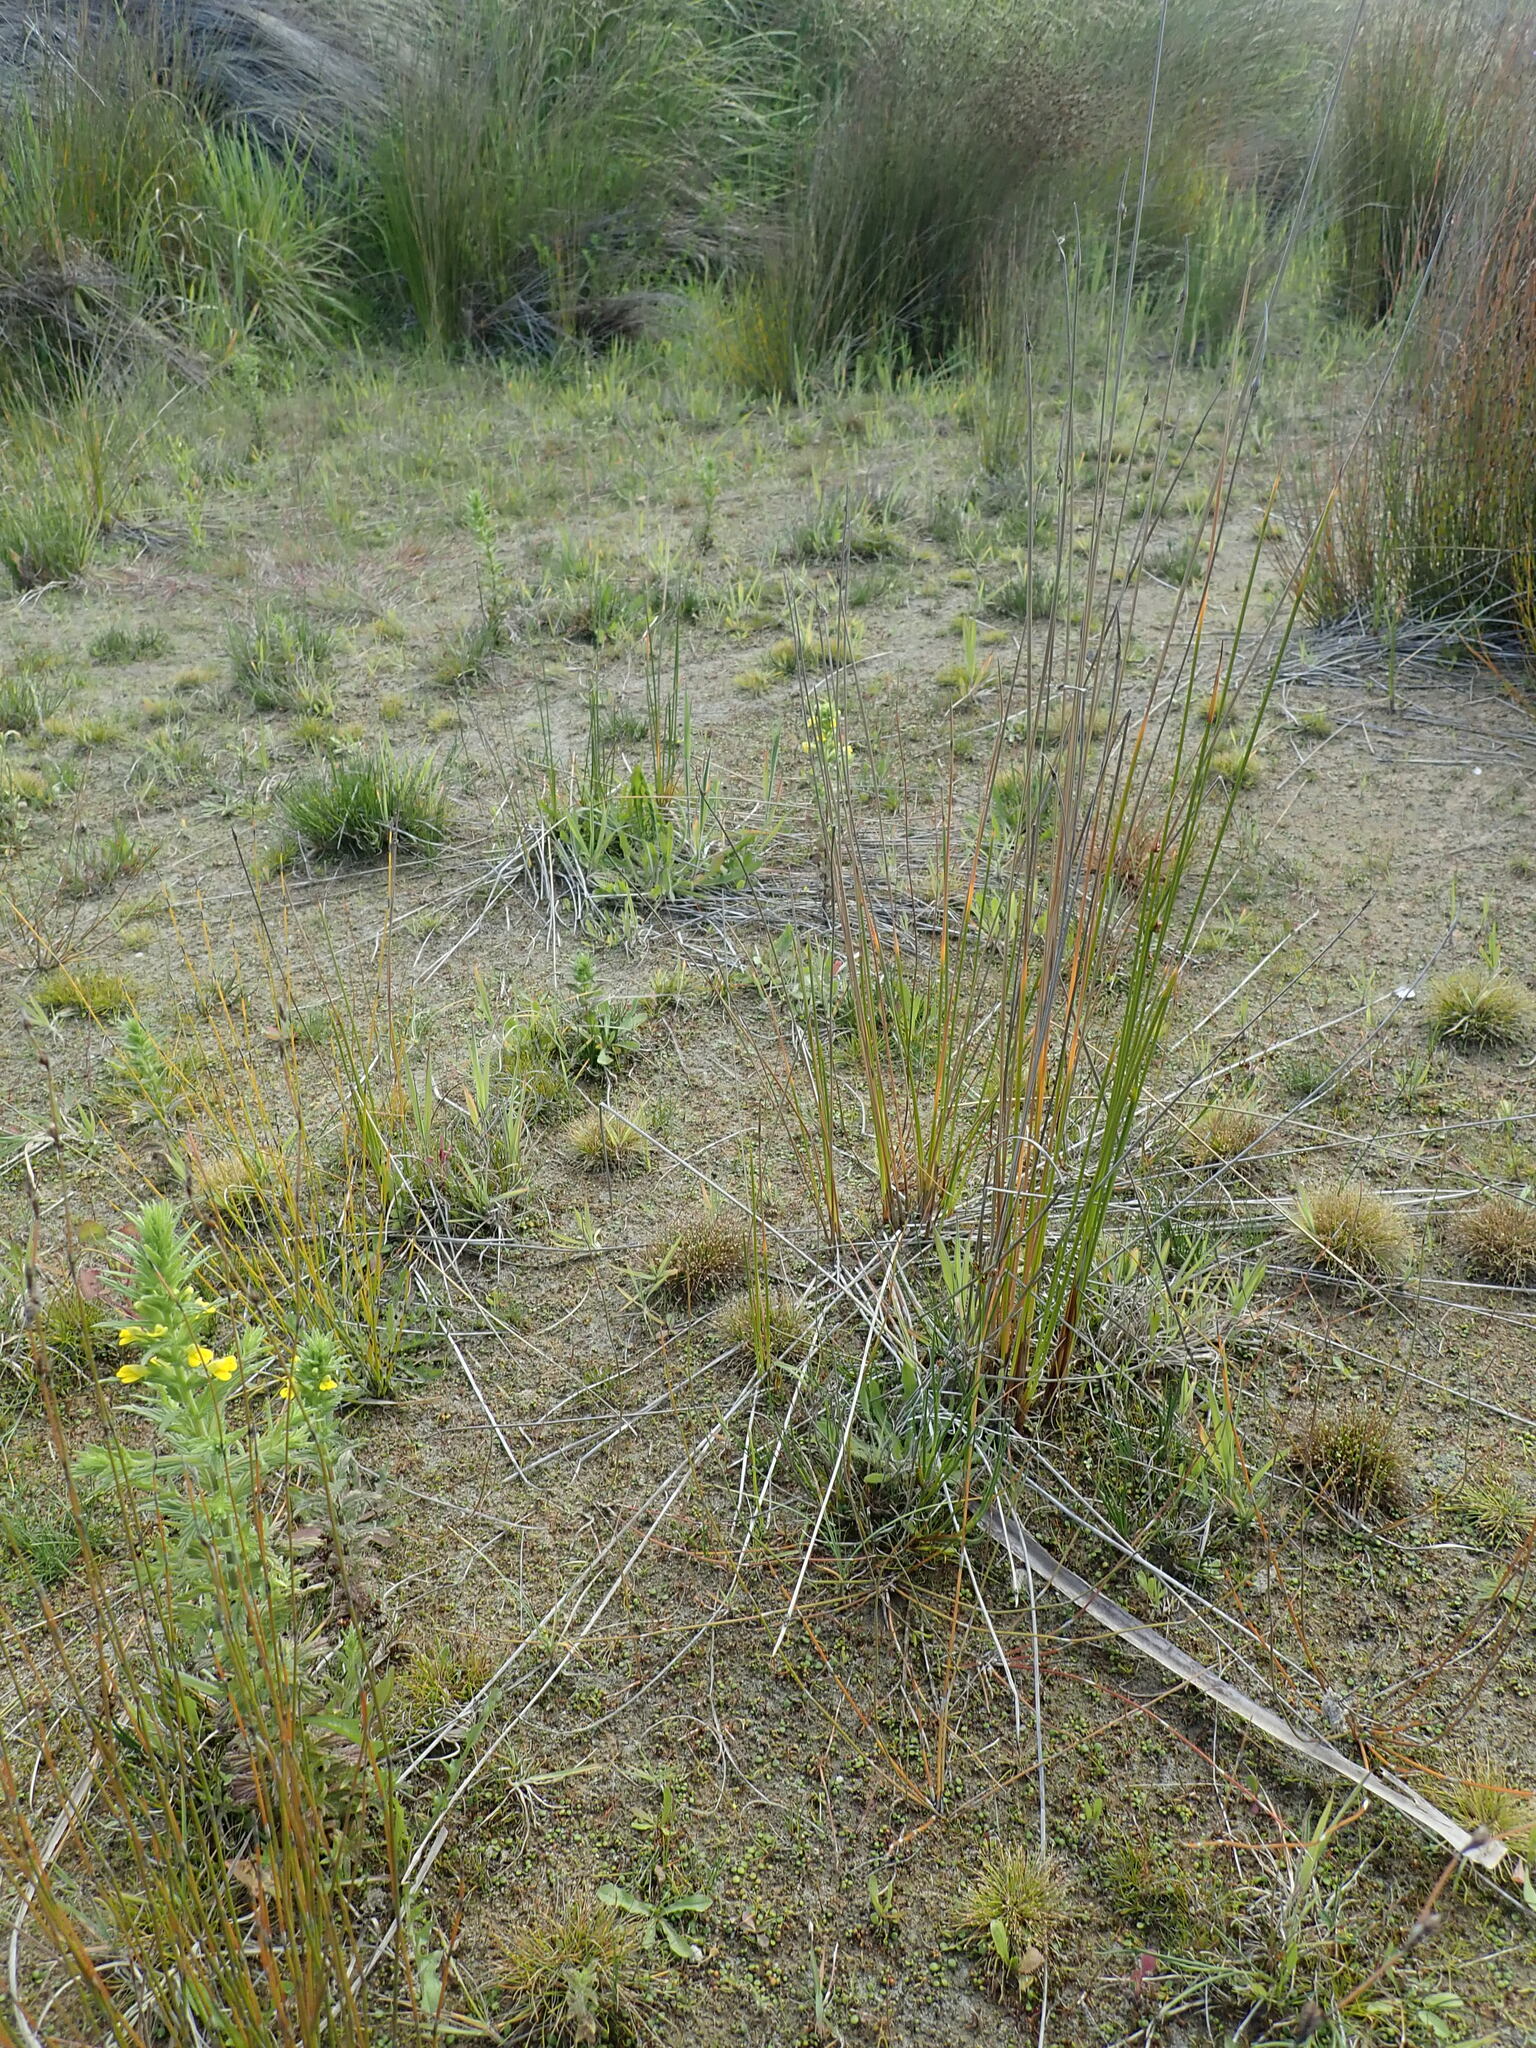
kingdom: Plantae
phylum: Tracheophyta
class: Magnoliopsida
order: Lamiales
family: Orobanchaceae
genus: Bellardia
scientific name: Bellardia viscosa
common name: Sticky parentucellia
